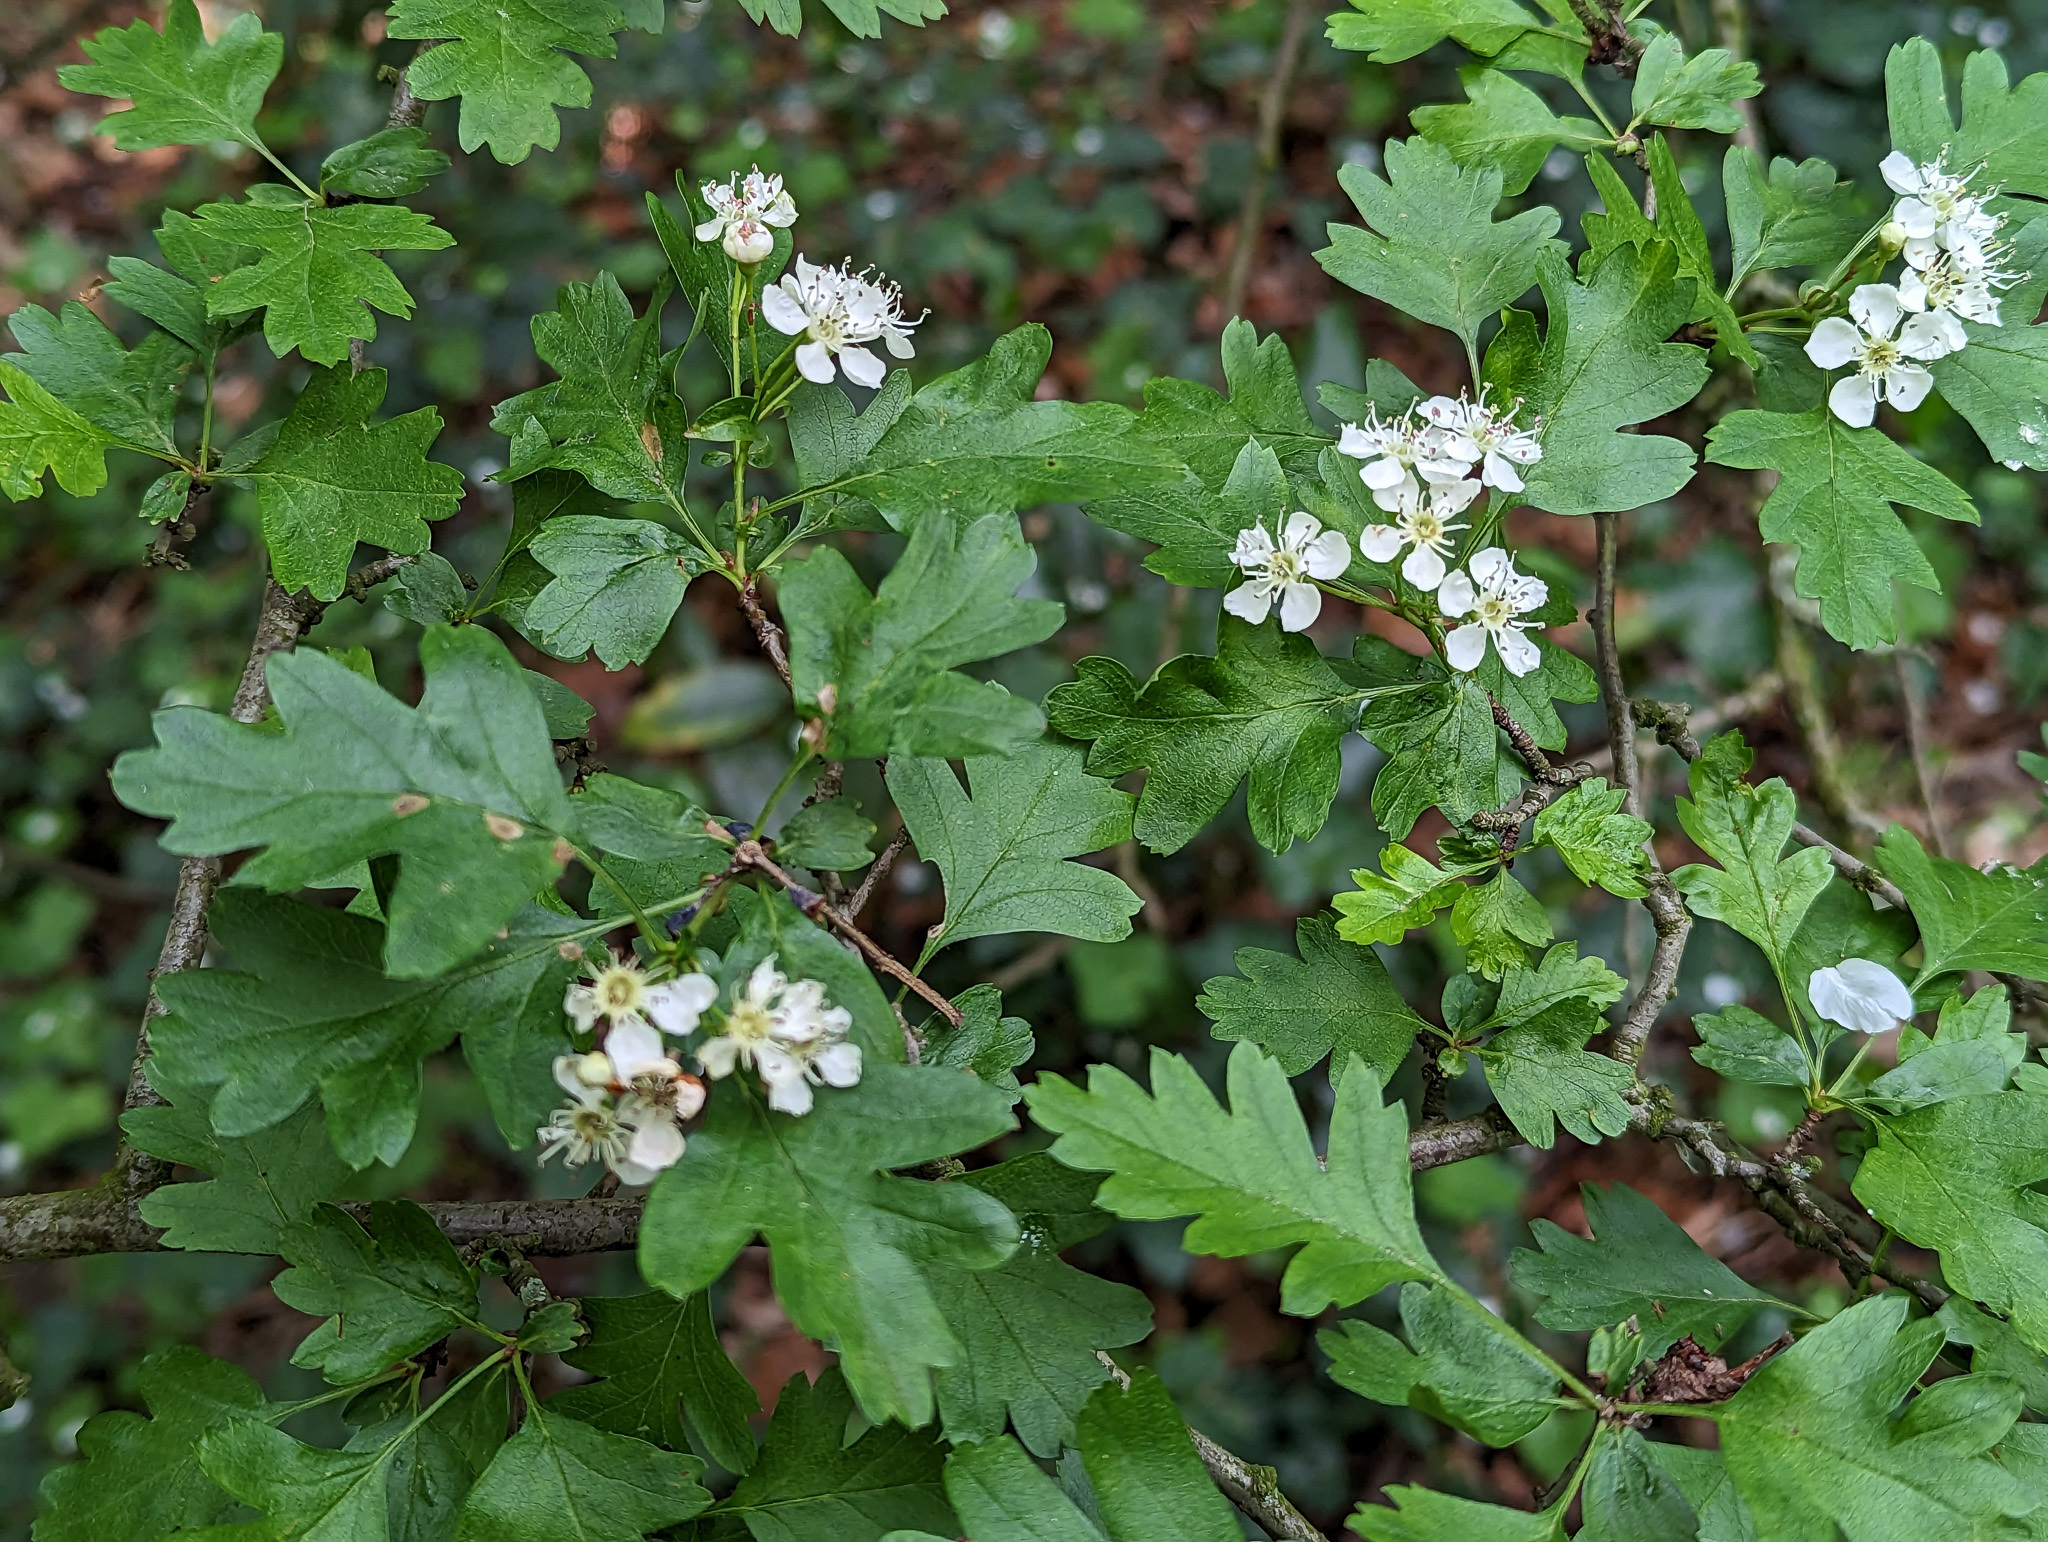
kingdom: Plantae
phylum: Tracheophyta
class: Magnoliopsida
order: Rosales
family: Rosaceae
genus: Crataegus
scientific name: Crataegus monogyna
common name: Hawthorn
